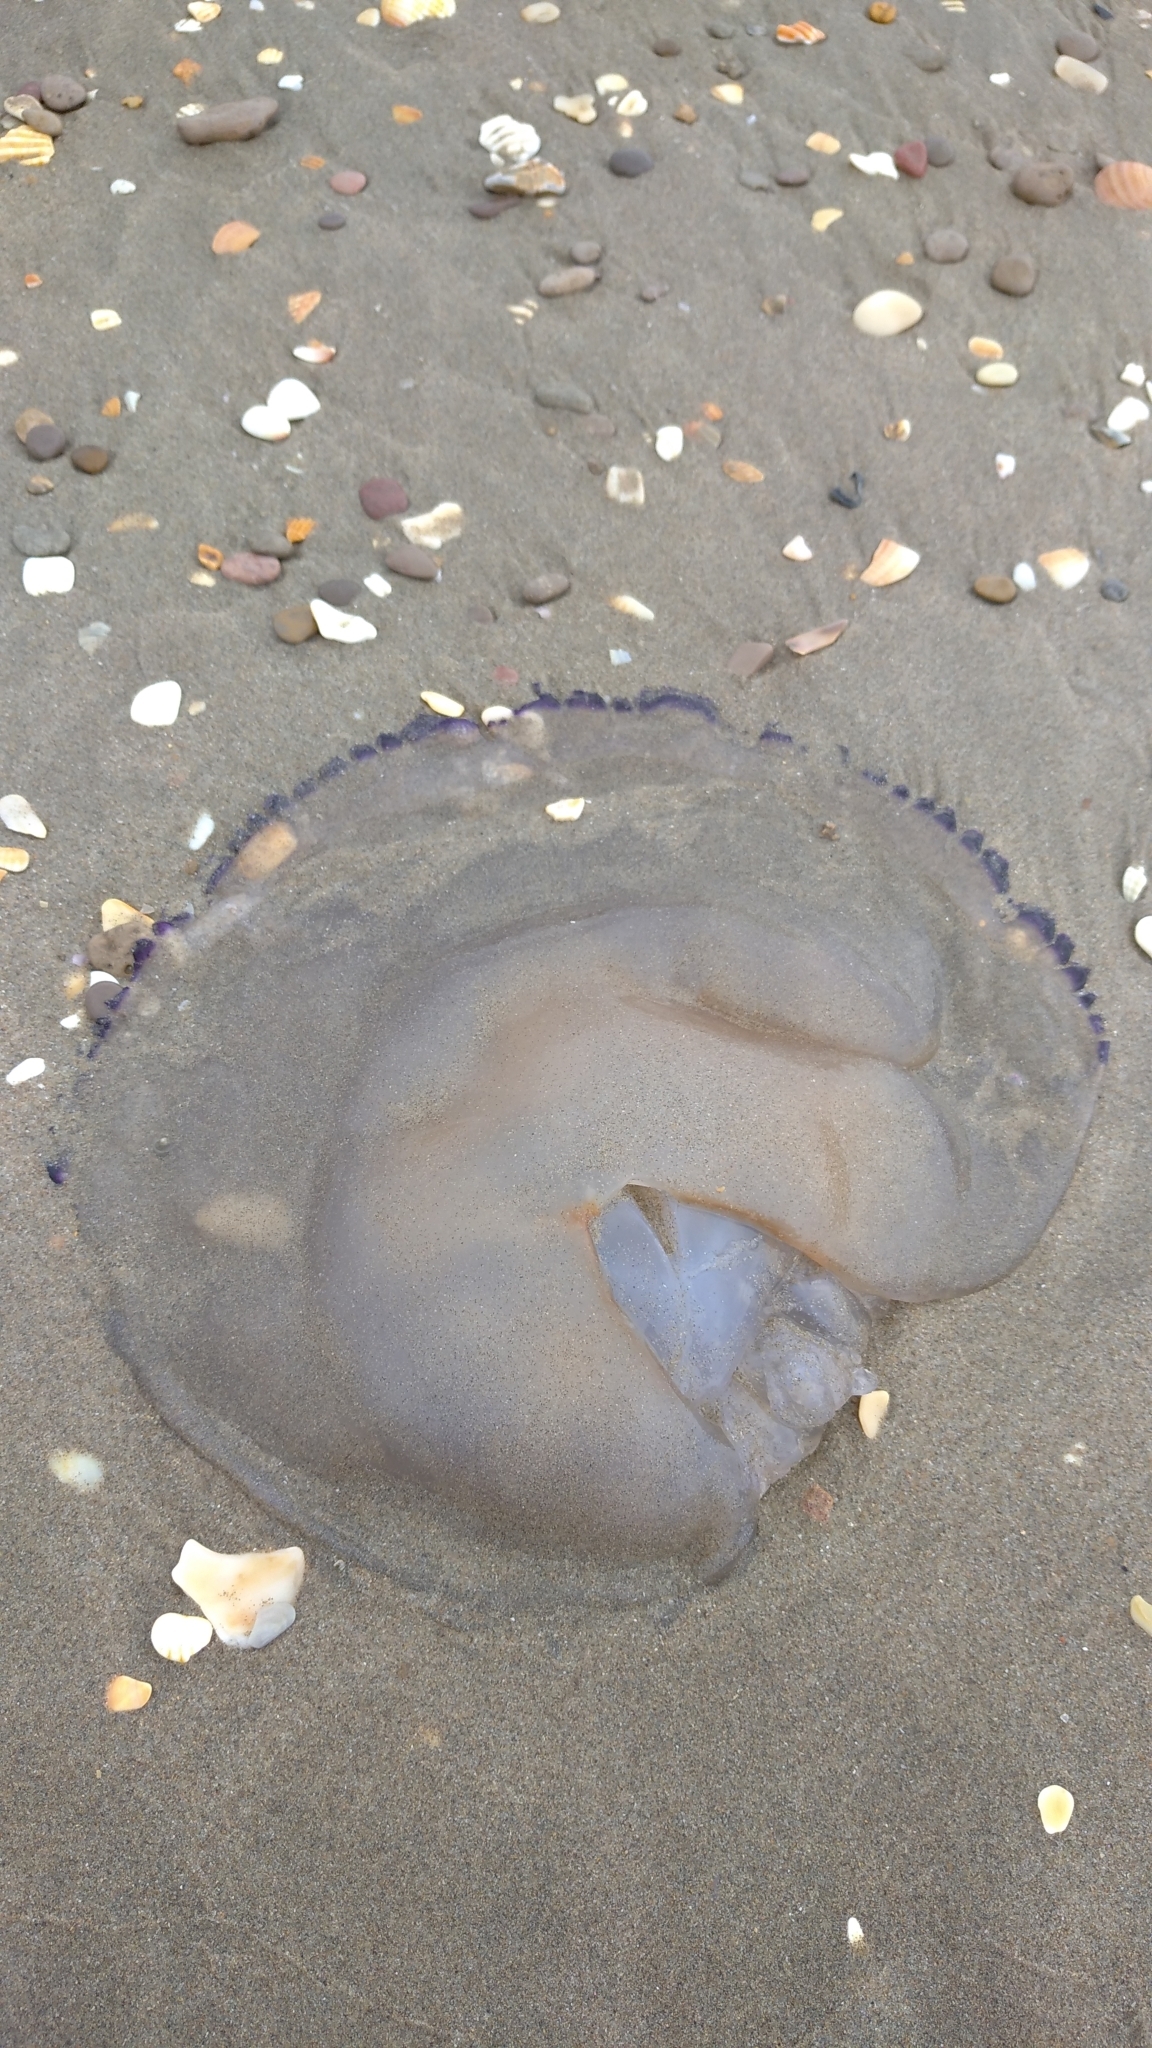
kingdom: Animalia
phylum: Cnidaria
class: Scyphozoa
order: Rhizostomeae
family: Rhizostomatidae
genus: Rhizostoma
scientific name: Rhizostoma pulmo
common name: Barrel jellyfish
